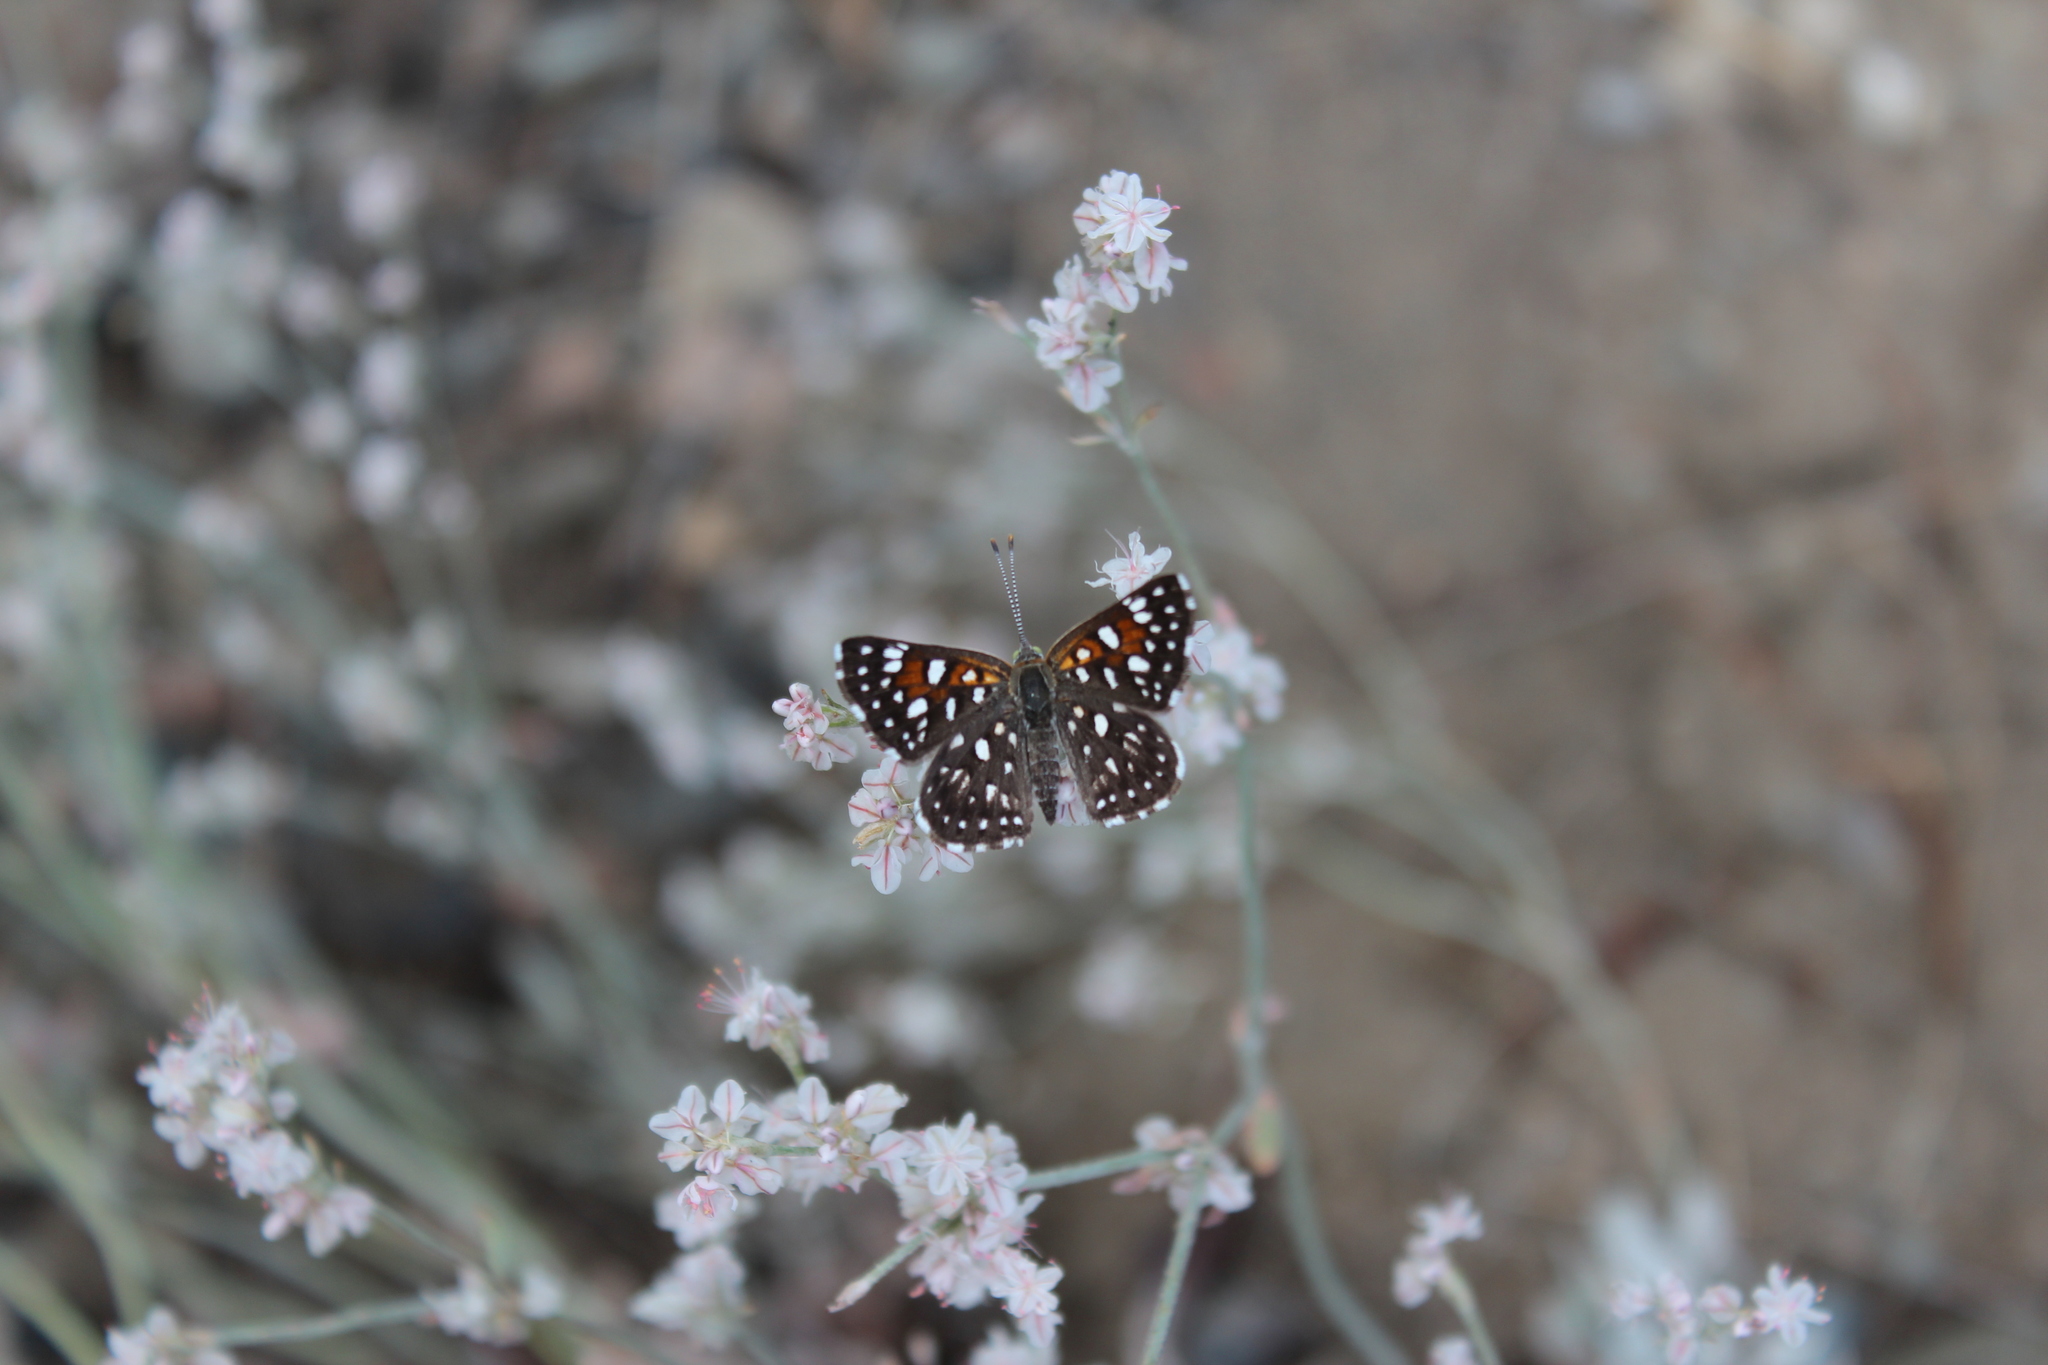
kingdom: Animalia
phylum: Arthropoda
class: Insecta
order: Lepidoptera
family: Riodinidae
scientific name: Riodinidae
